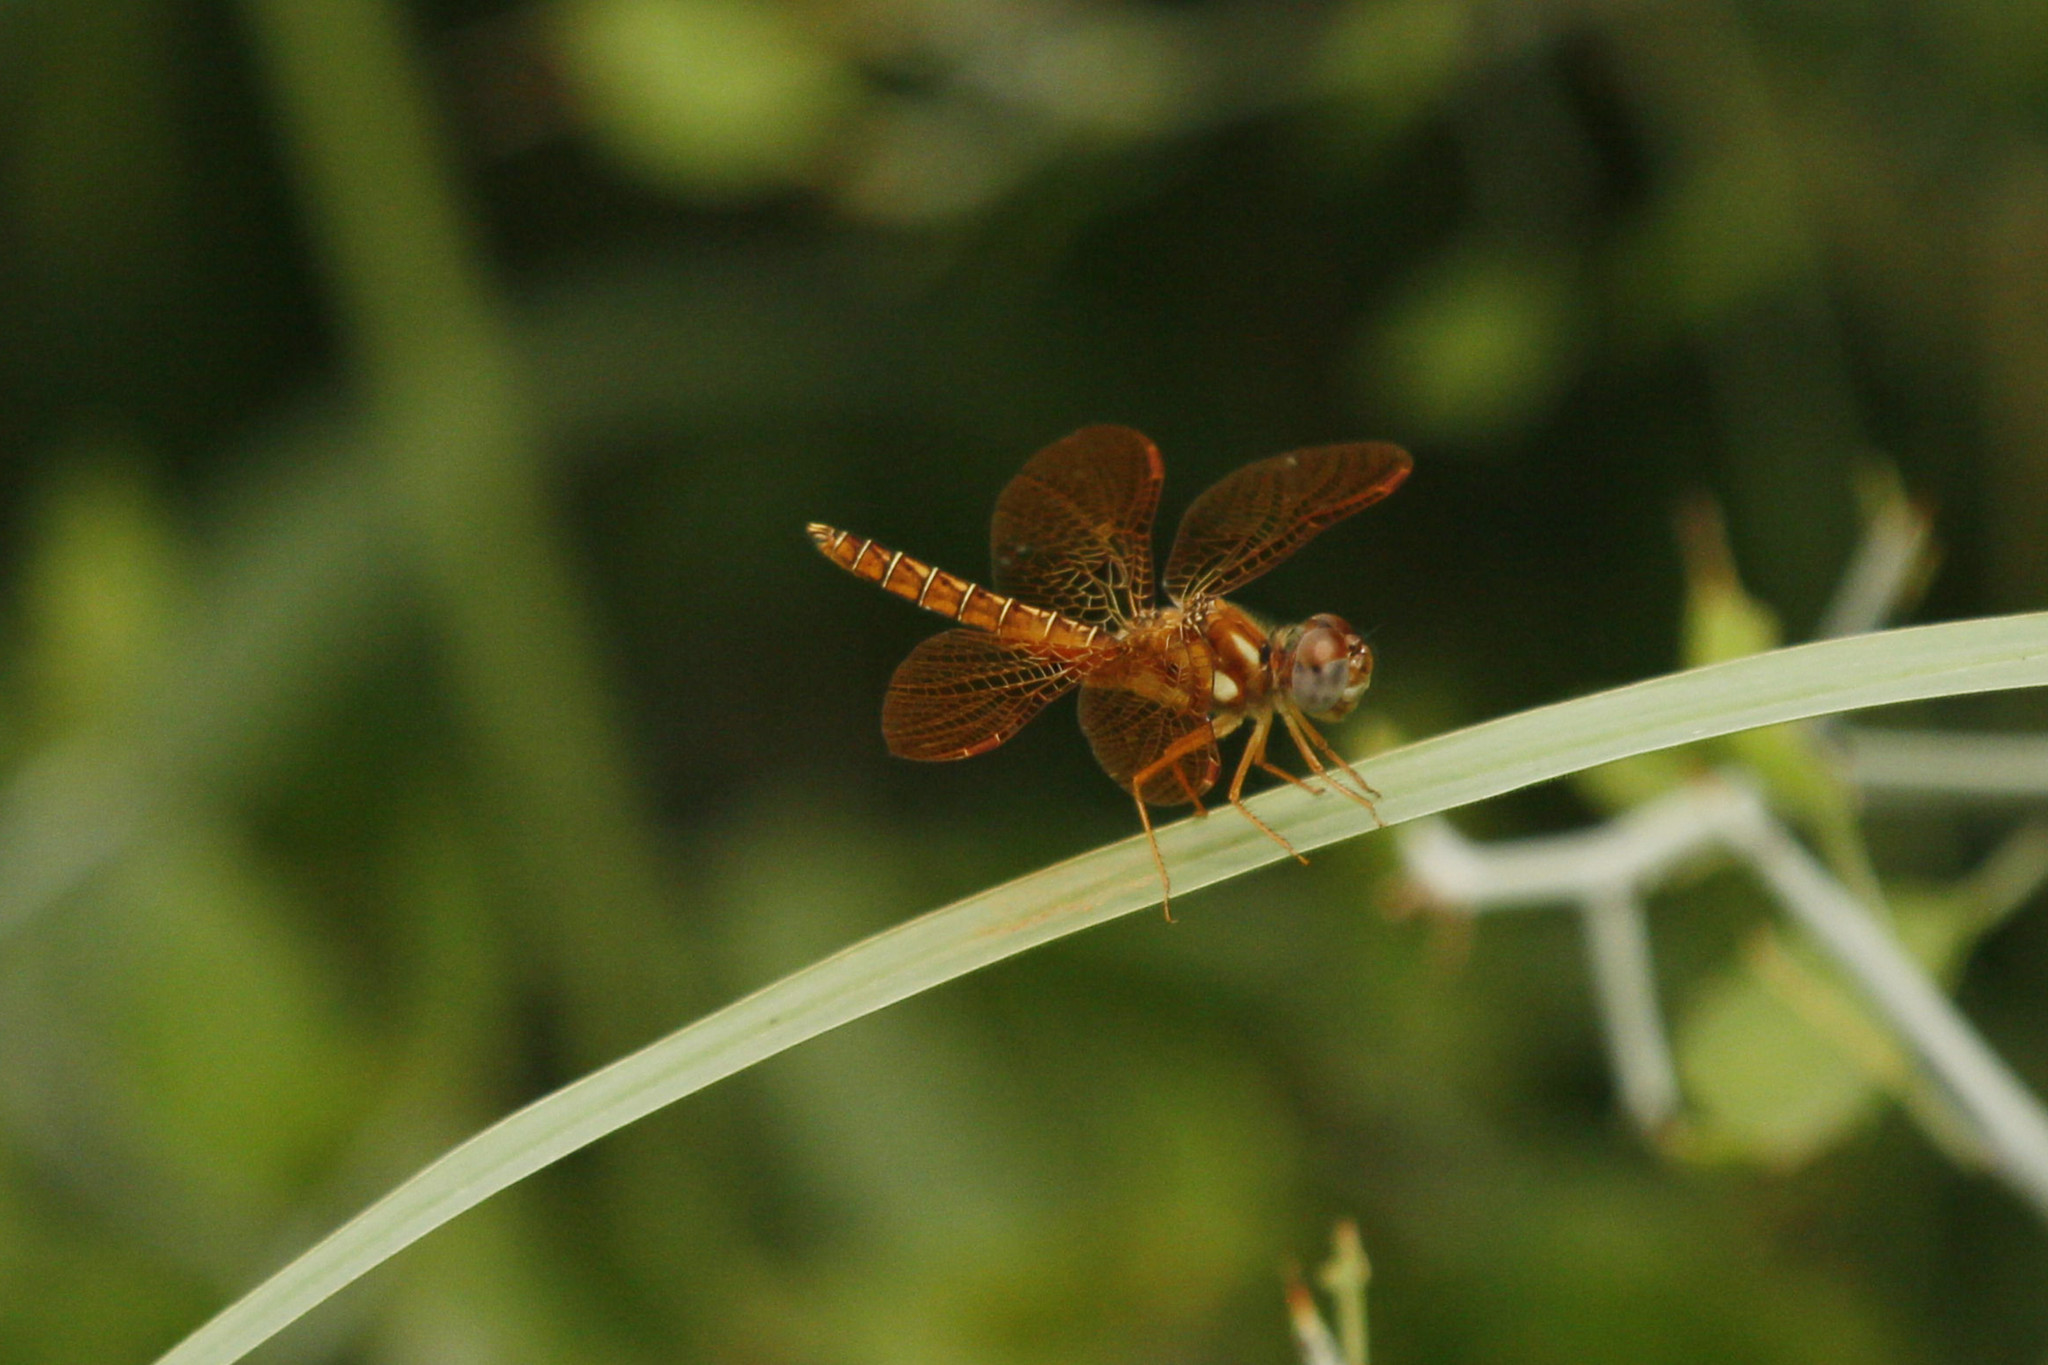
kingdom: Animalia
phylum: Arthropoda
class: Insecta
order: Odonata
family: Libellulidae
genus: Perithemis
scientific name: Perithemis tenera
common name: Eastern amberwing
